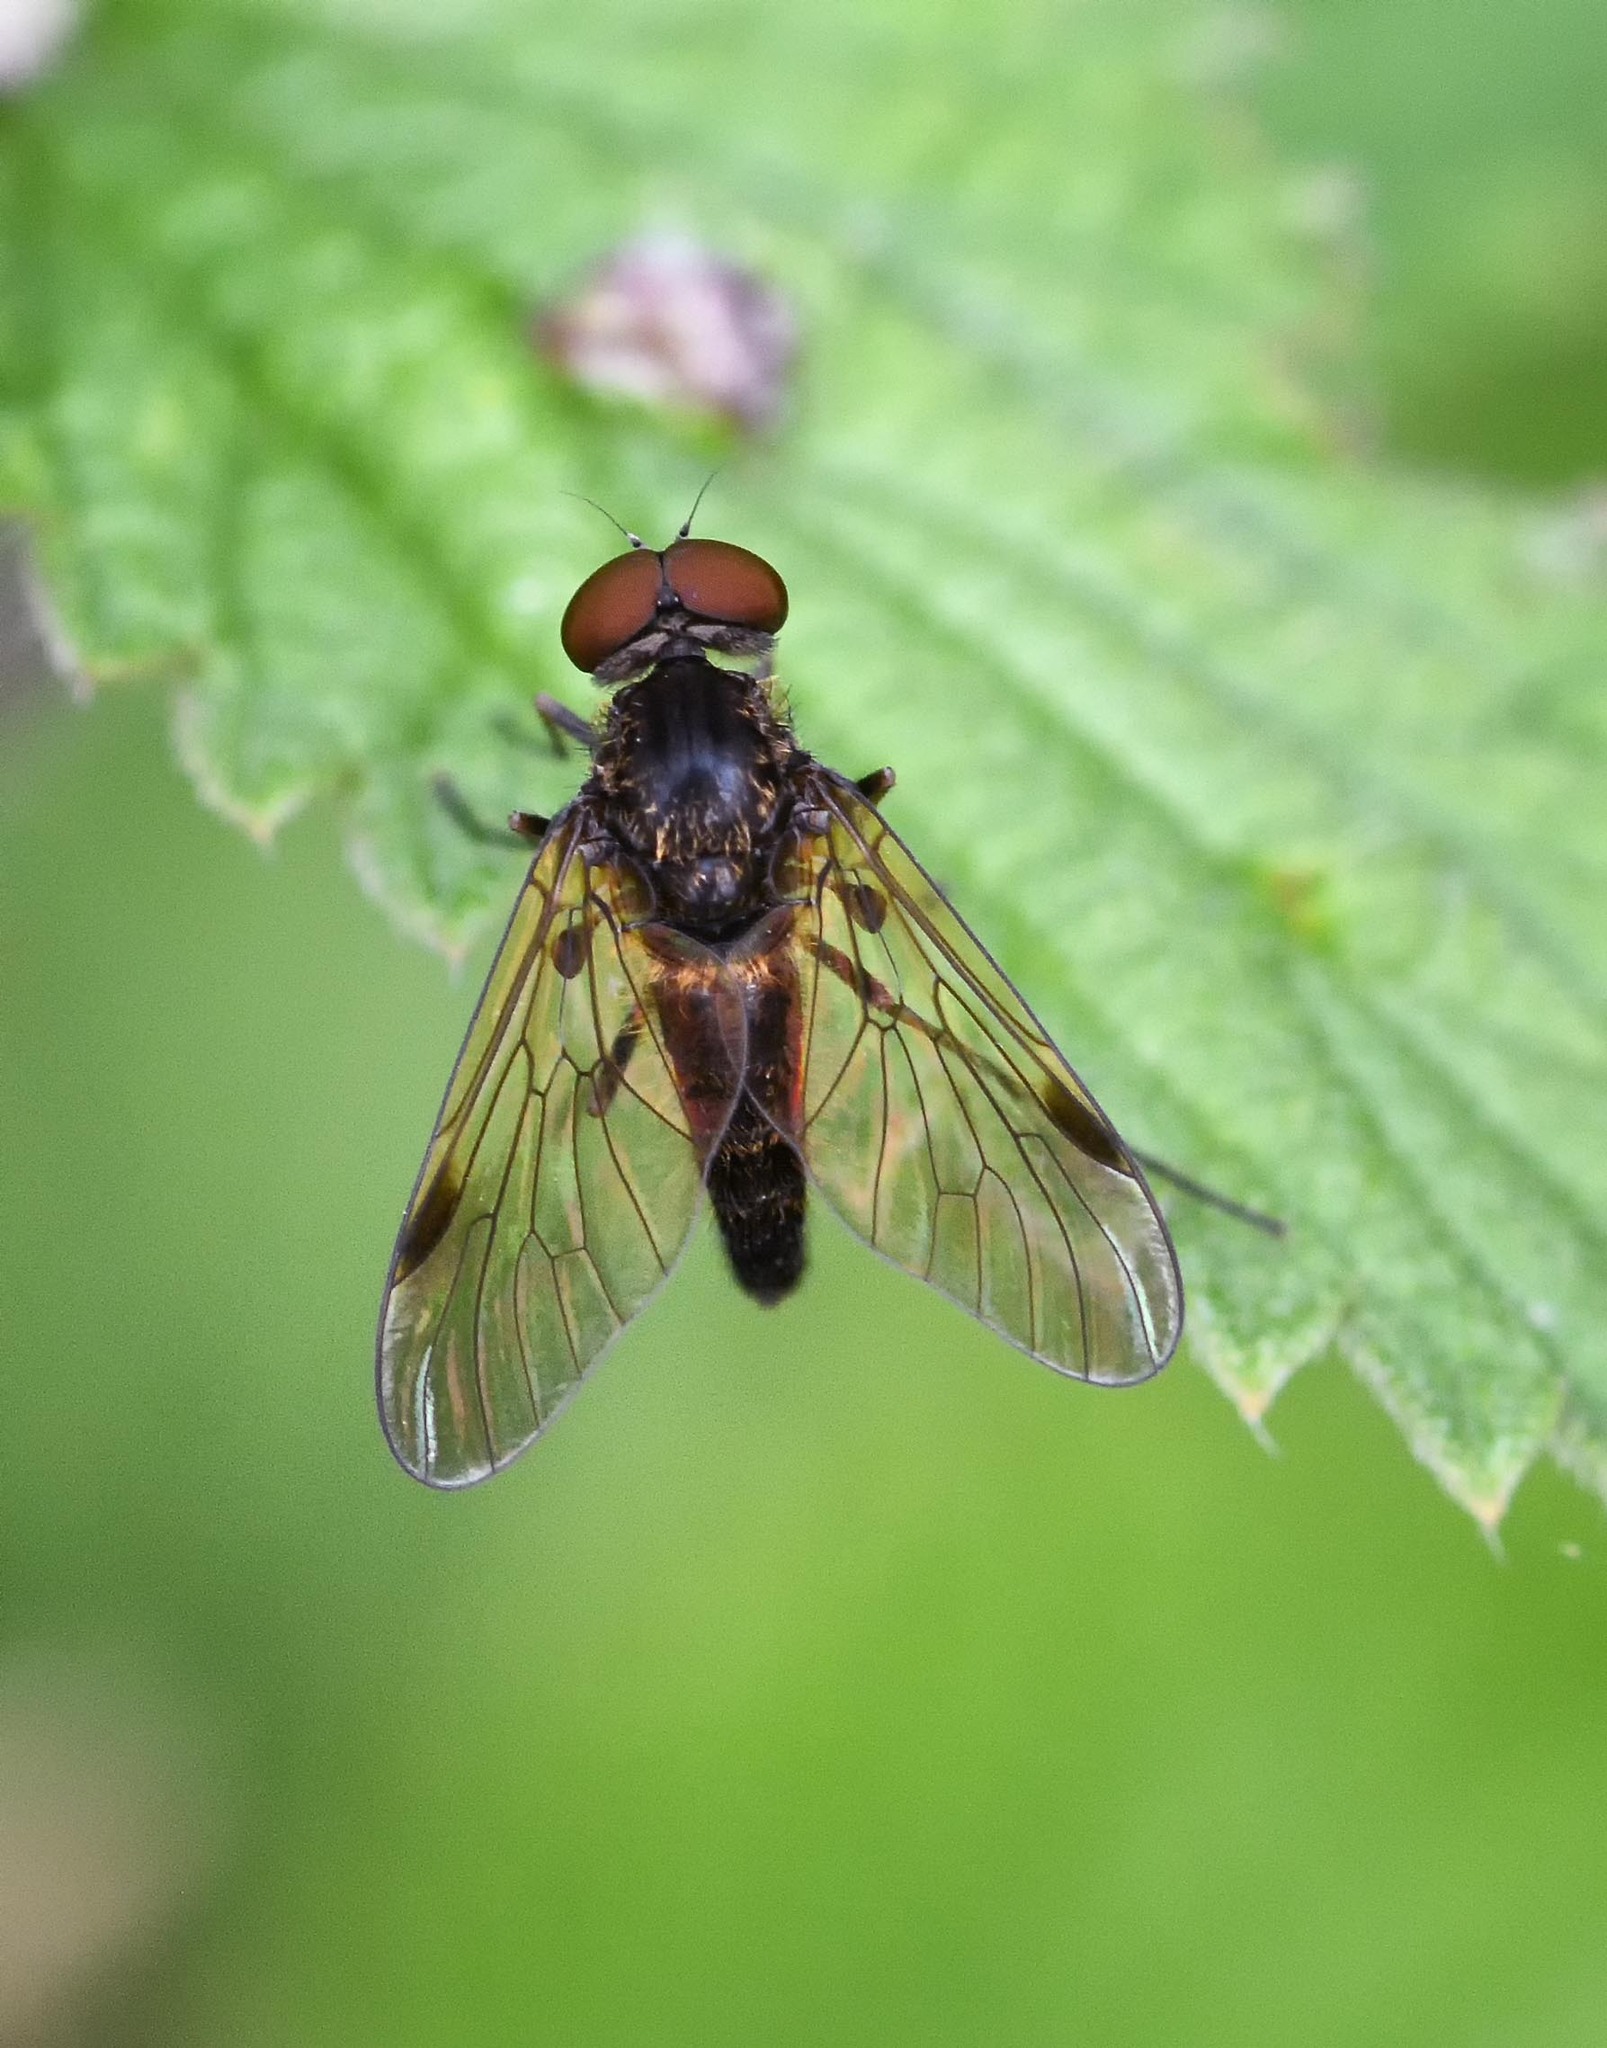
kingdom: Animalia
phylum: Arthropoda
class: Insecta
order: Diptera
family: Rhagionidae
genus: Chrysopilus
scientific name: Chrysopilus cristatus
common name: Black snipefly
